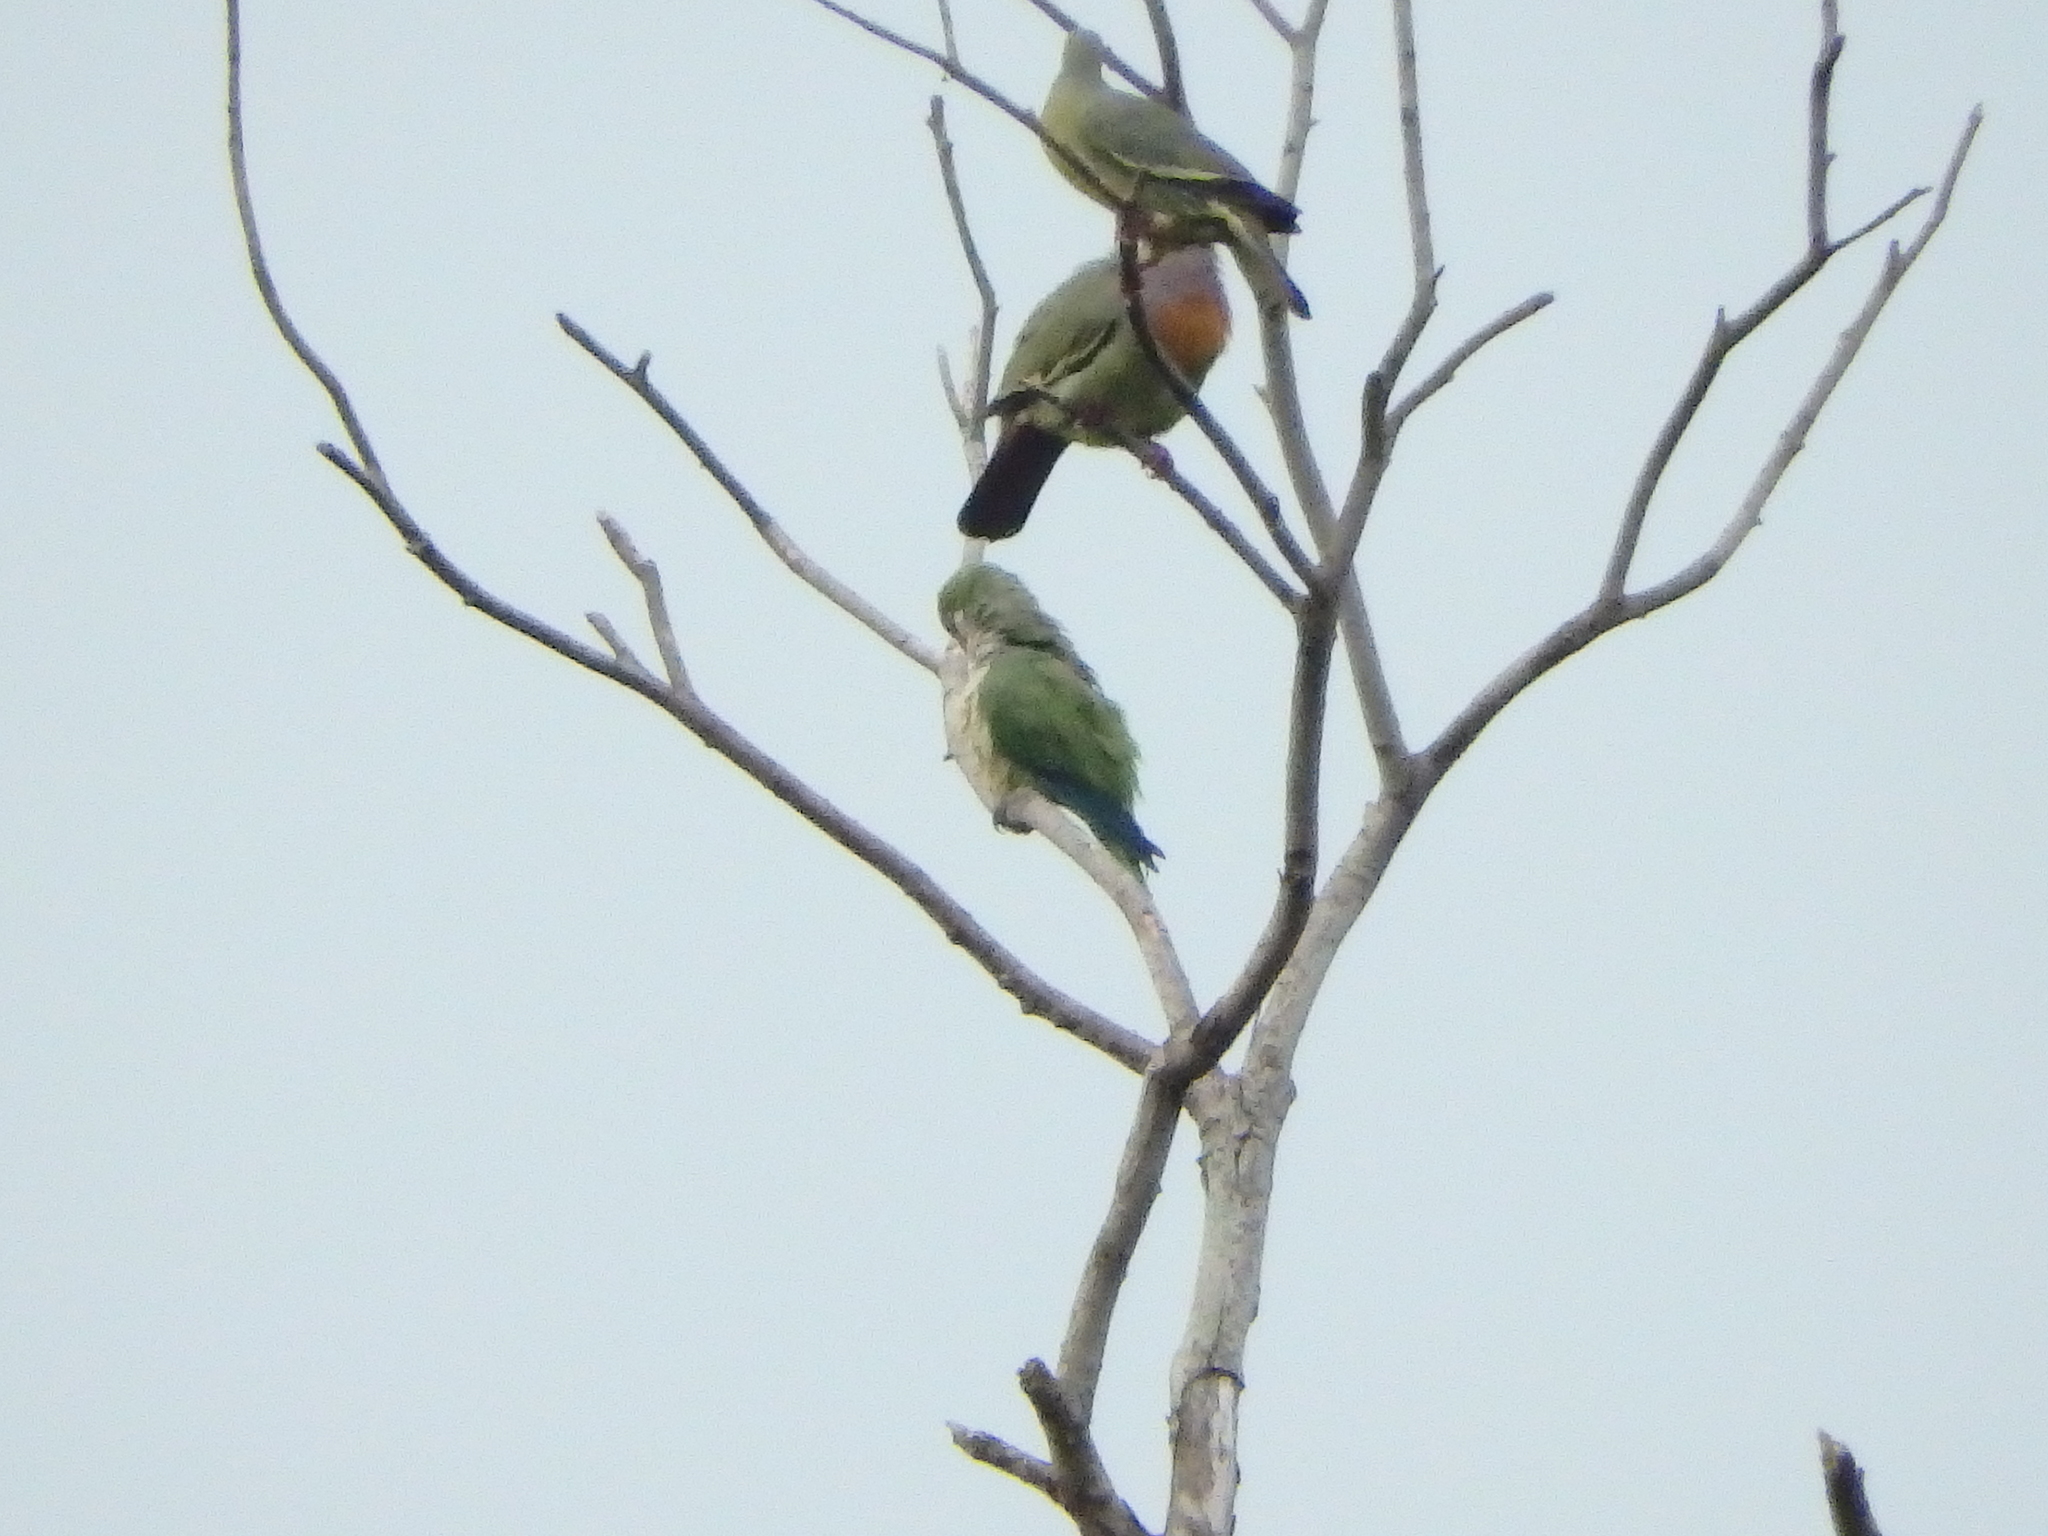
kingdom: Animalia
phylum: Chordata
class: Aves
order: Psittaciformes
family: Psittacidae
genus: Myiopsitta
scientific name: Myiopsitta monachus
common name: Monk parakeet
